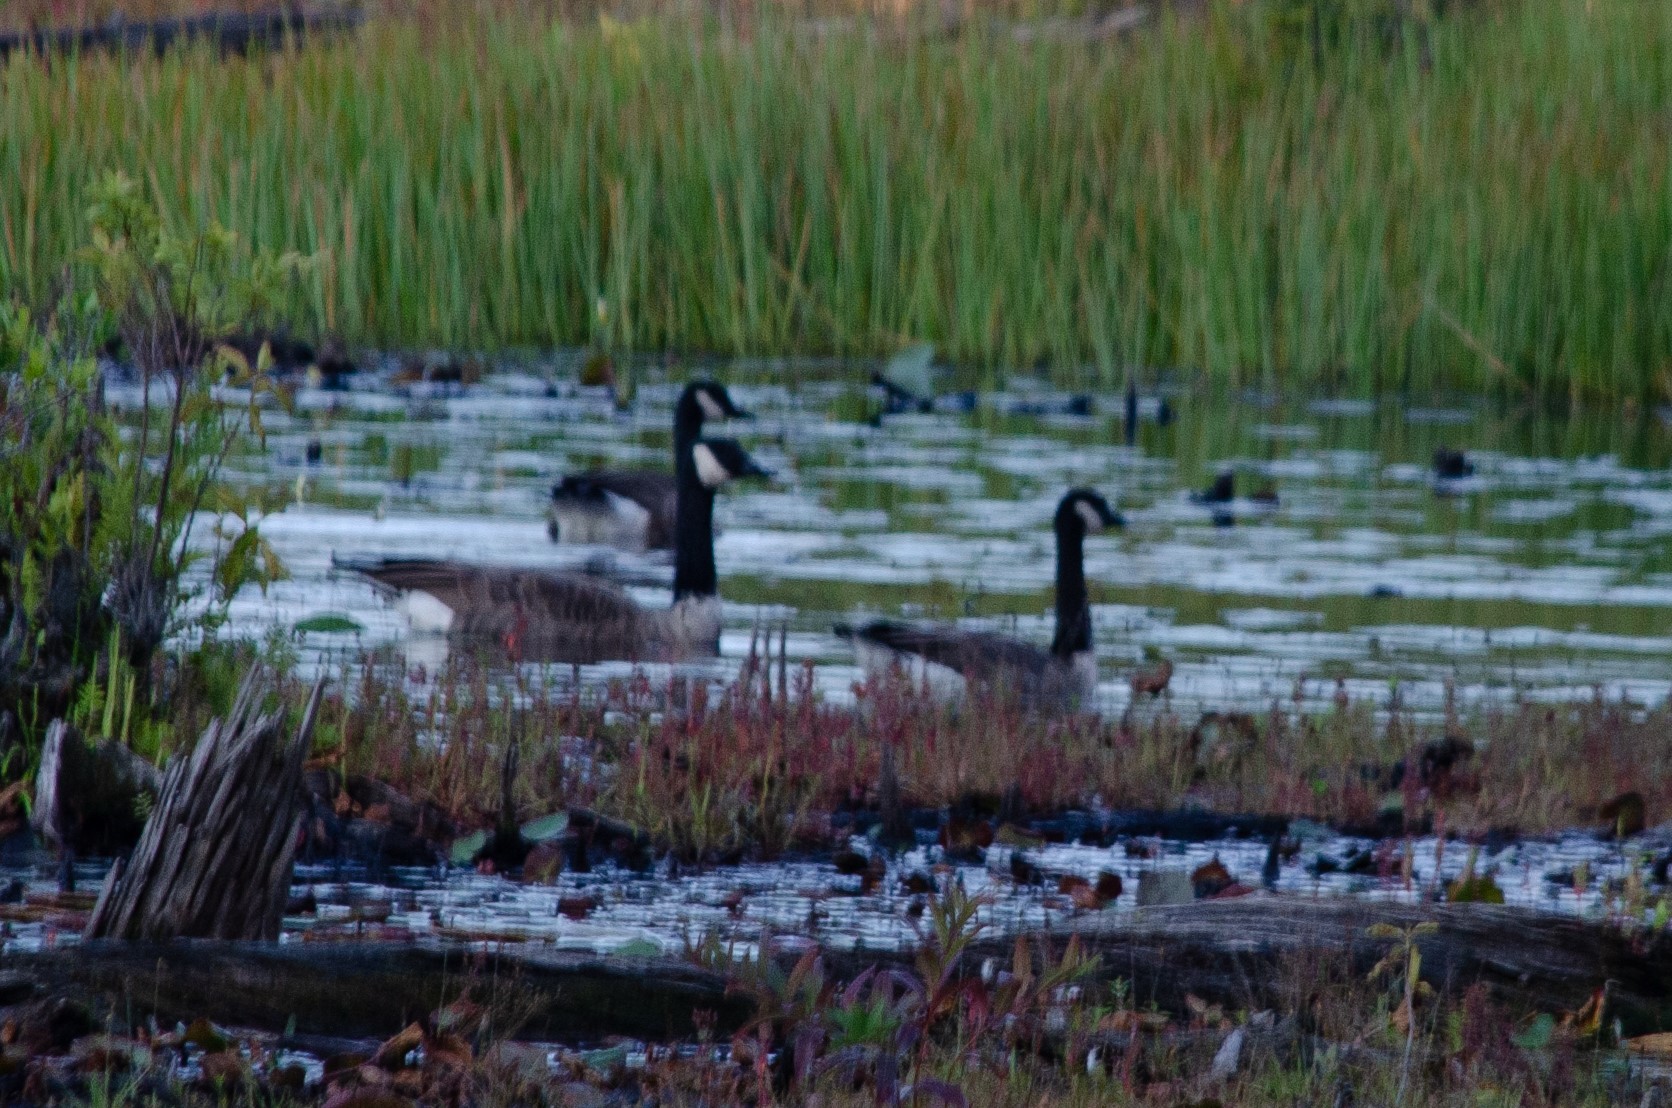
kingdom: Animalia
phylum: Chordata
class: Aves
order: Anseriformes
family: Anatidae
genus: Branta
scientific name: Branta canadensis
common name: Canada goose
